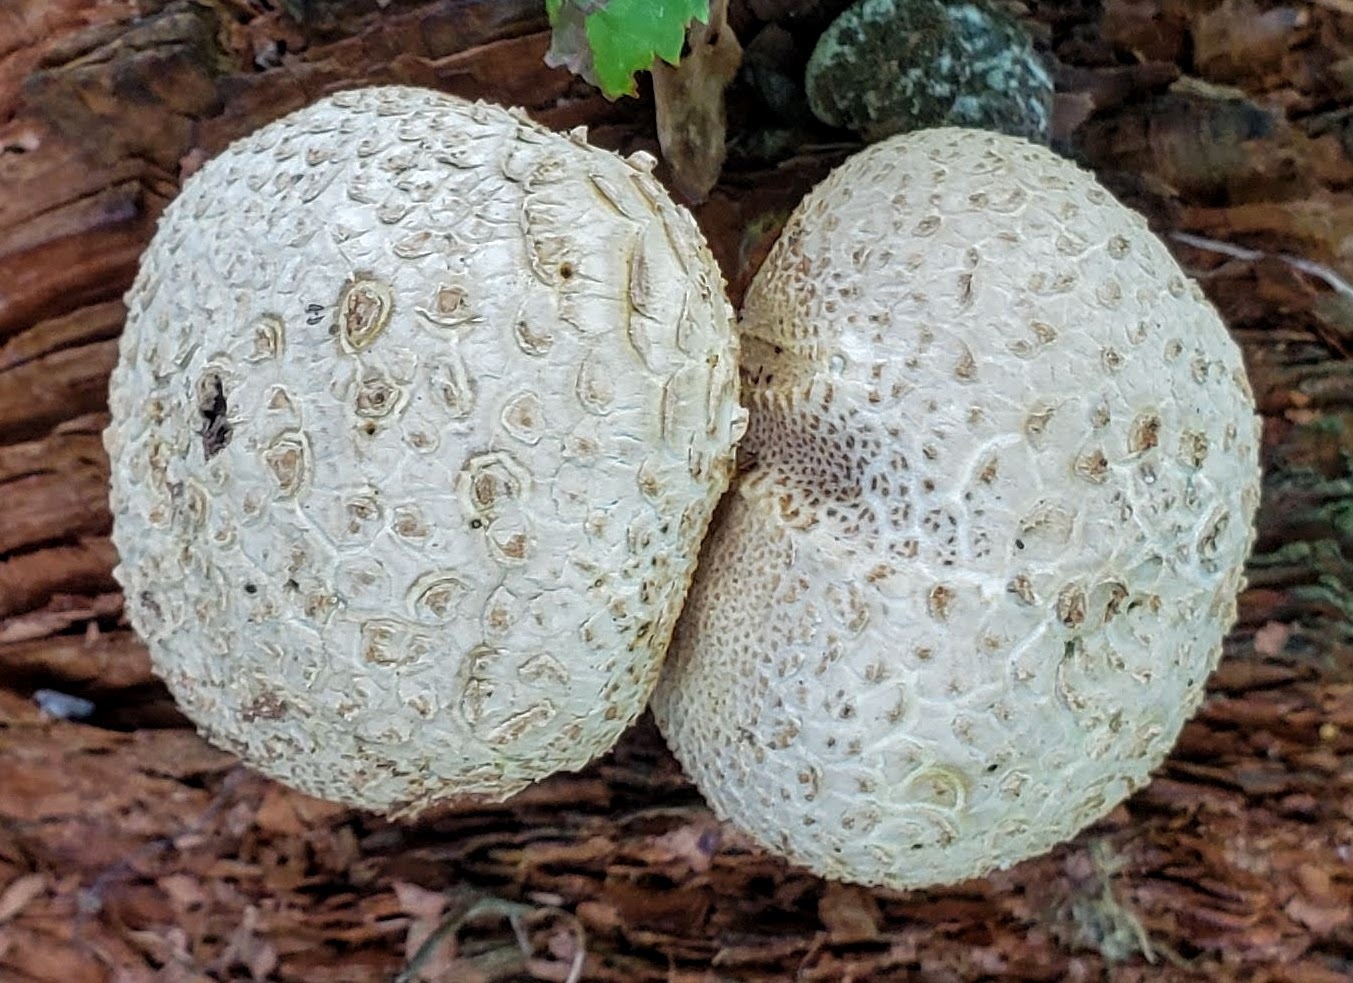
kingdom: Fungi
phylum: Basidiomycota
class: Agaricomycetes
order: Boletales
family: Sclerodermataceae
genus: Scleroderma
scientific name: Scleroderma citrinum
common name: Common earthball
